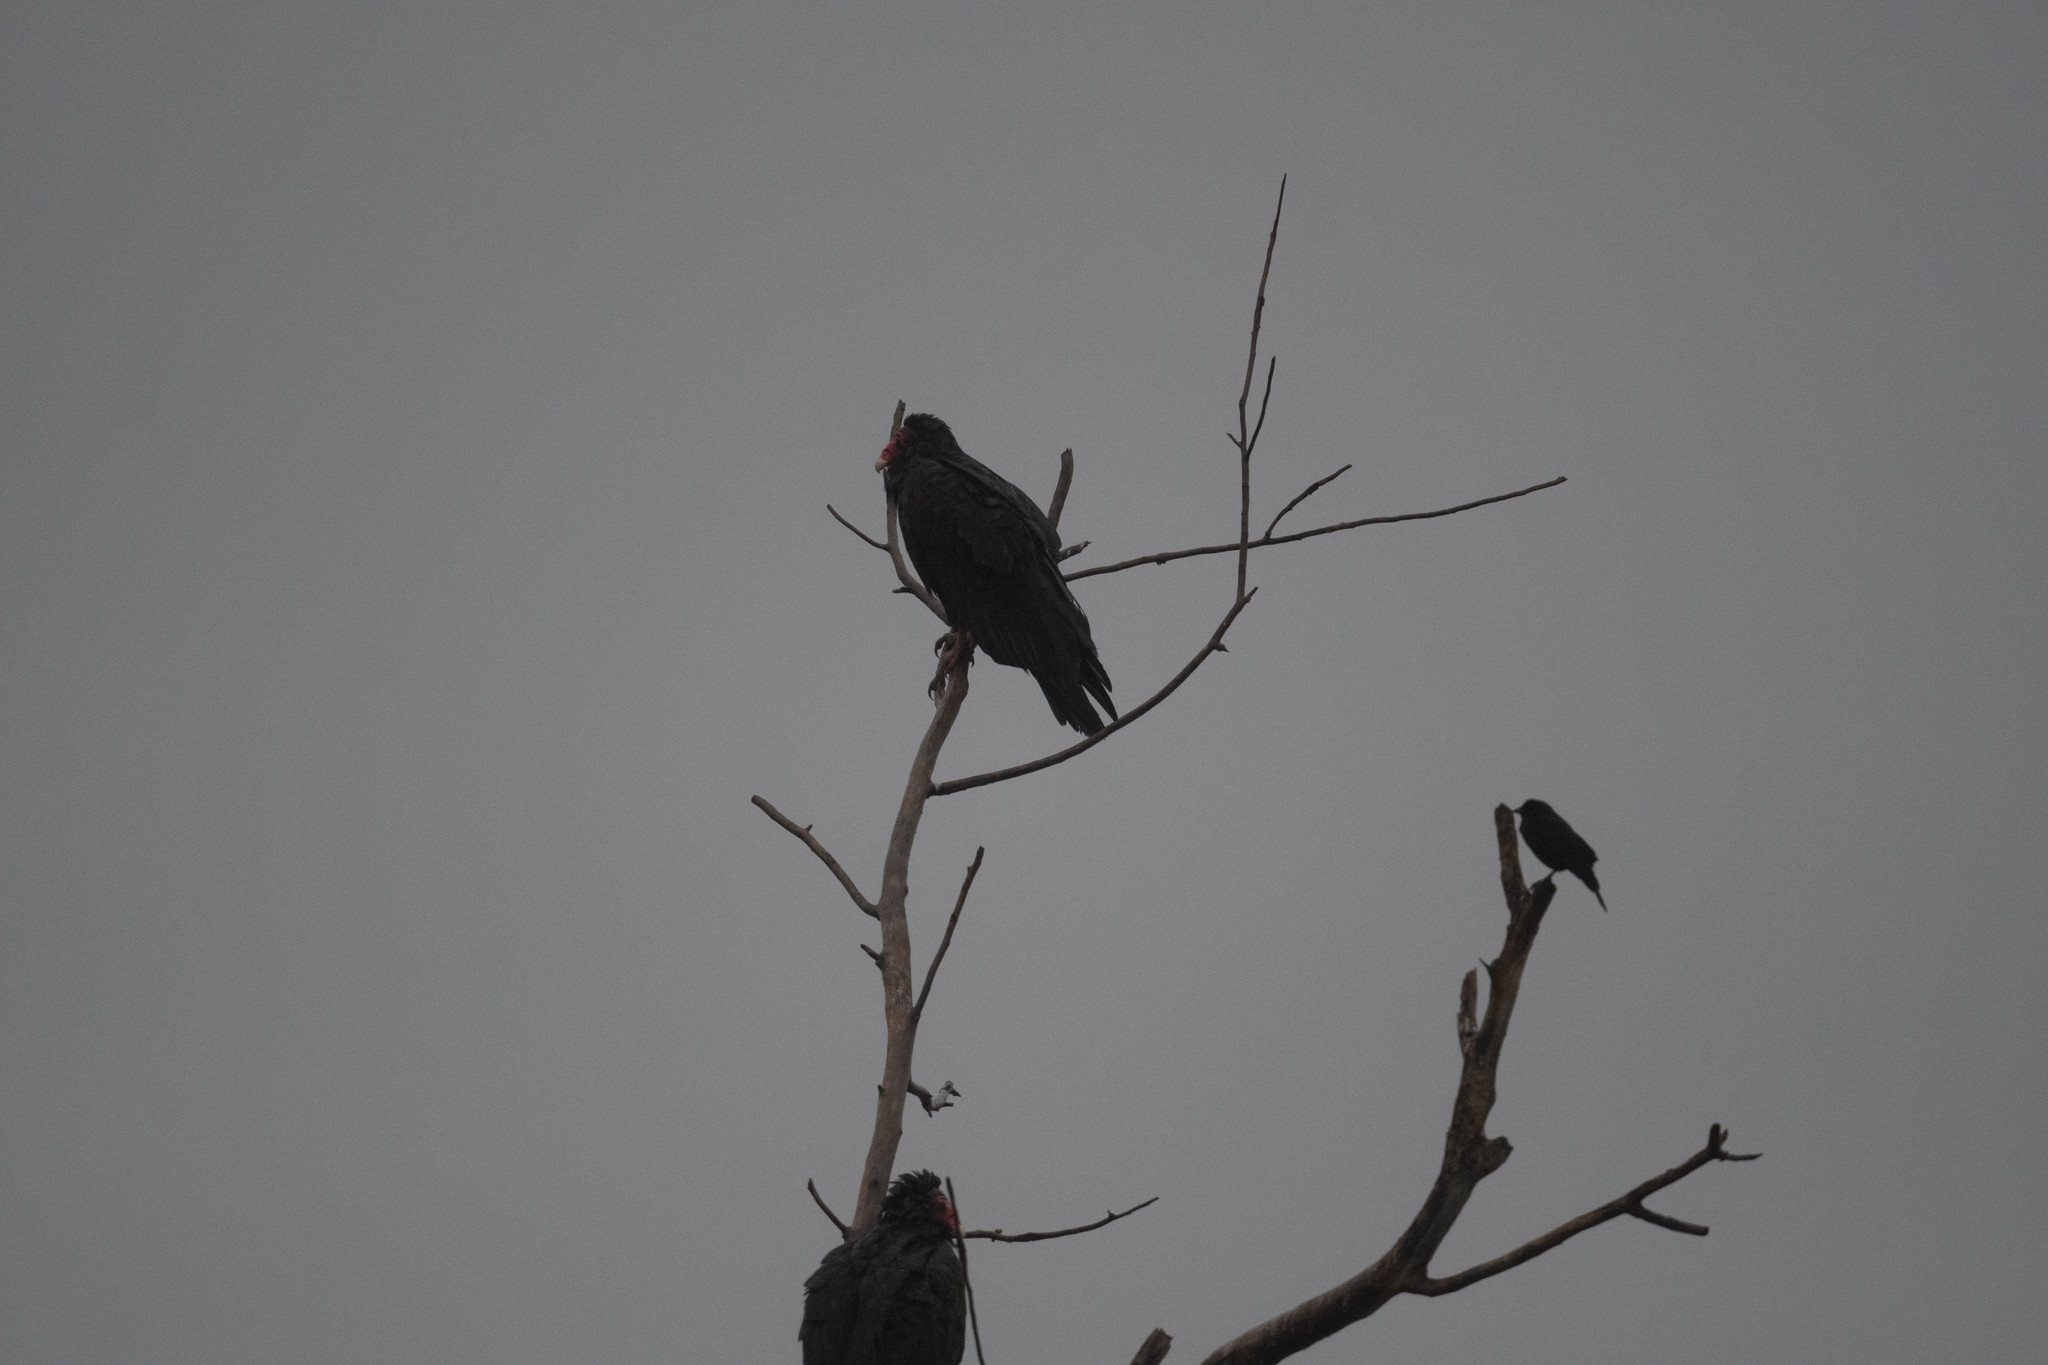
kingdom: Animalia
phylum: Chordata
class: Aves
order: Accipitriformes
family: Cathartidae
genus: Cathartes
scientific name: Cathartes aura
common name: Turkey vulture
